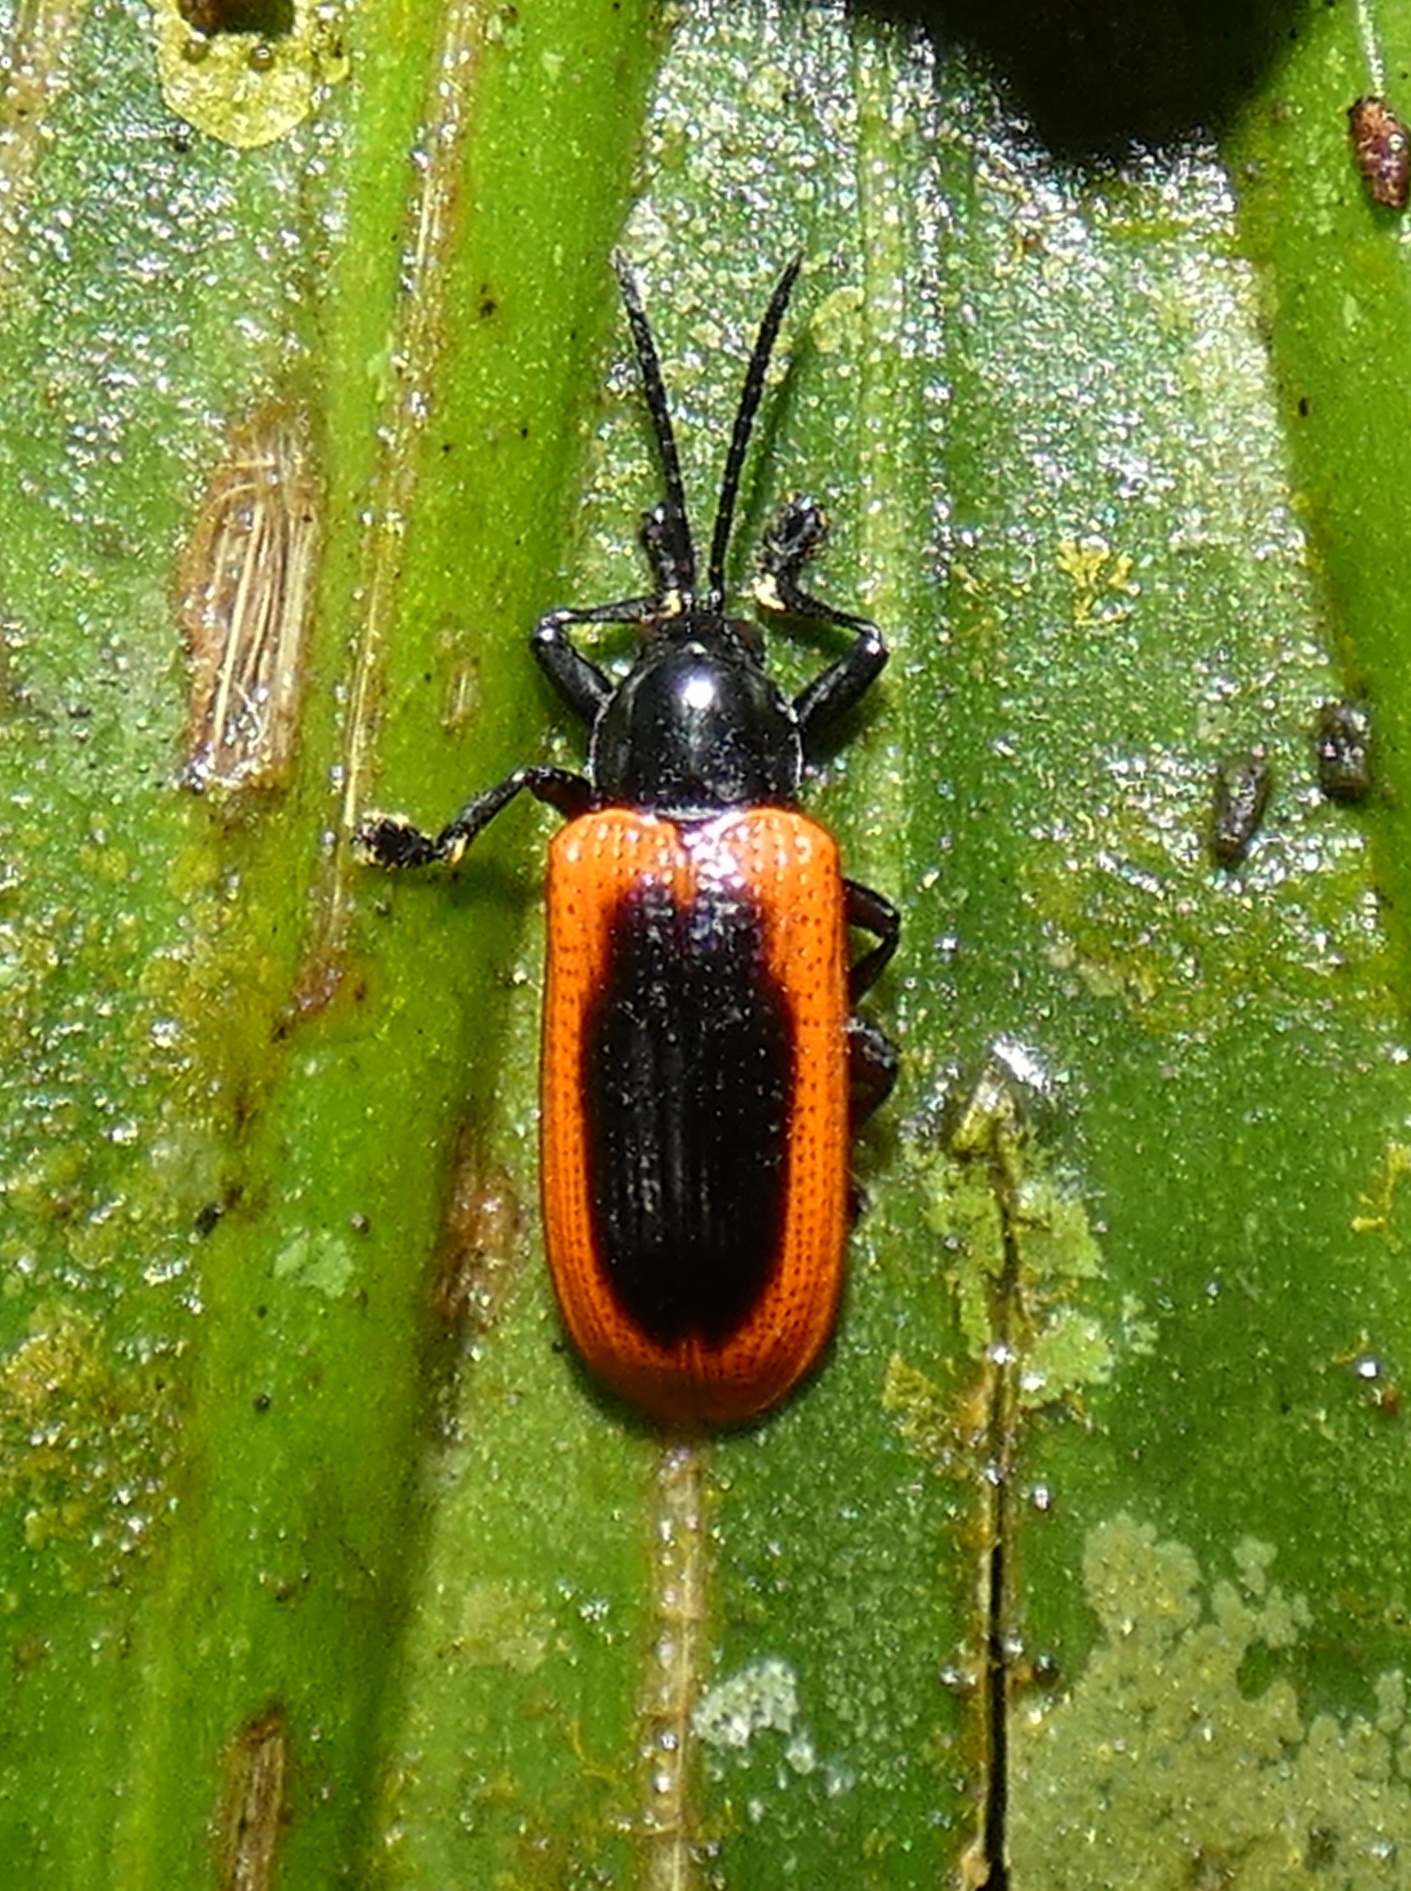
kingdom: Animalia
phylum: Arthropoda
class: Insecta
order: Coleoptera
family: Chrysomelidae
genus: Prosopodonta
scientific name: Prosopodonta limbata
